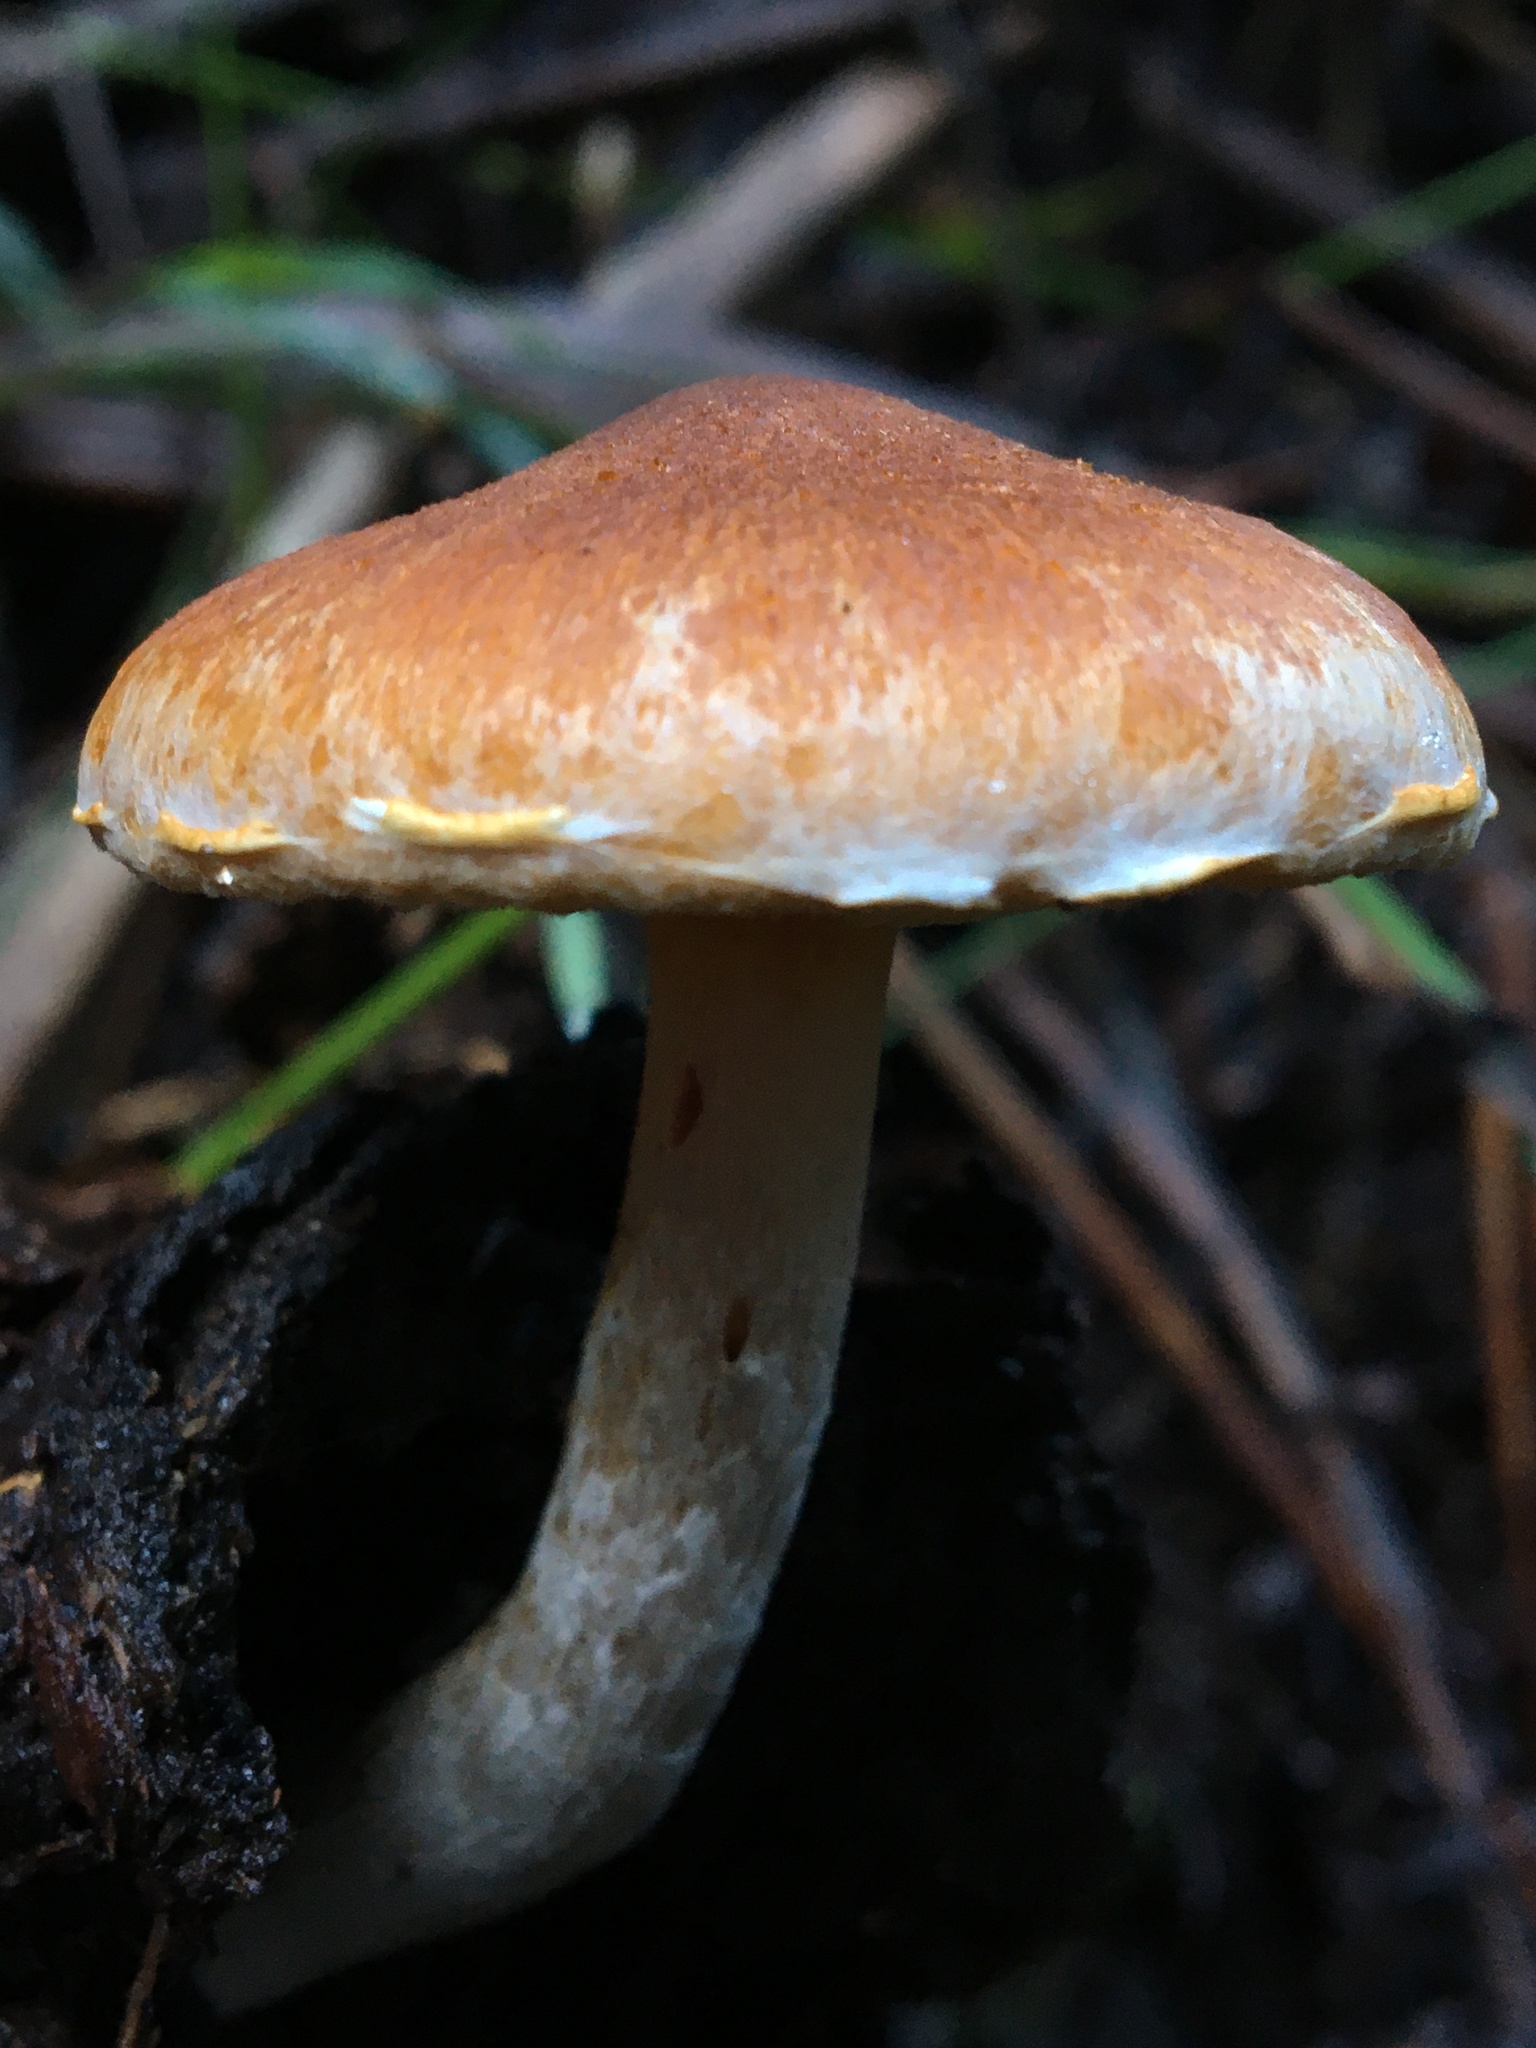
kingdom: Fungi
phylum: Basidiomycota
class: Agaricomycetes
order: Agaricales
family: Hymenogastraceae
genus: Gymnopilus
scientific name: Gymnopilus allantopus
